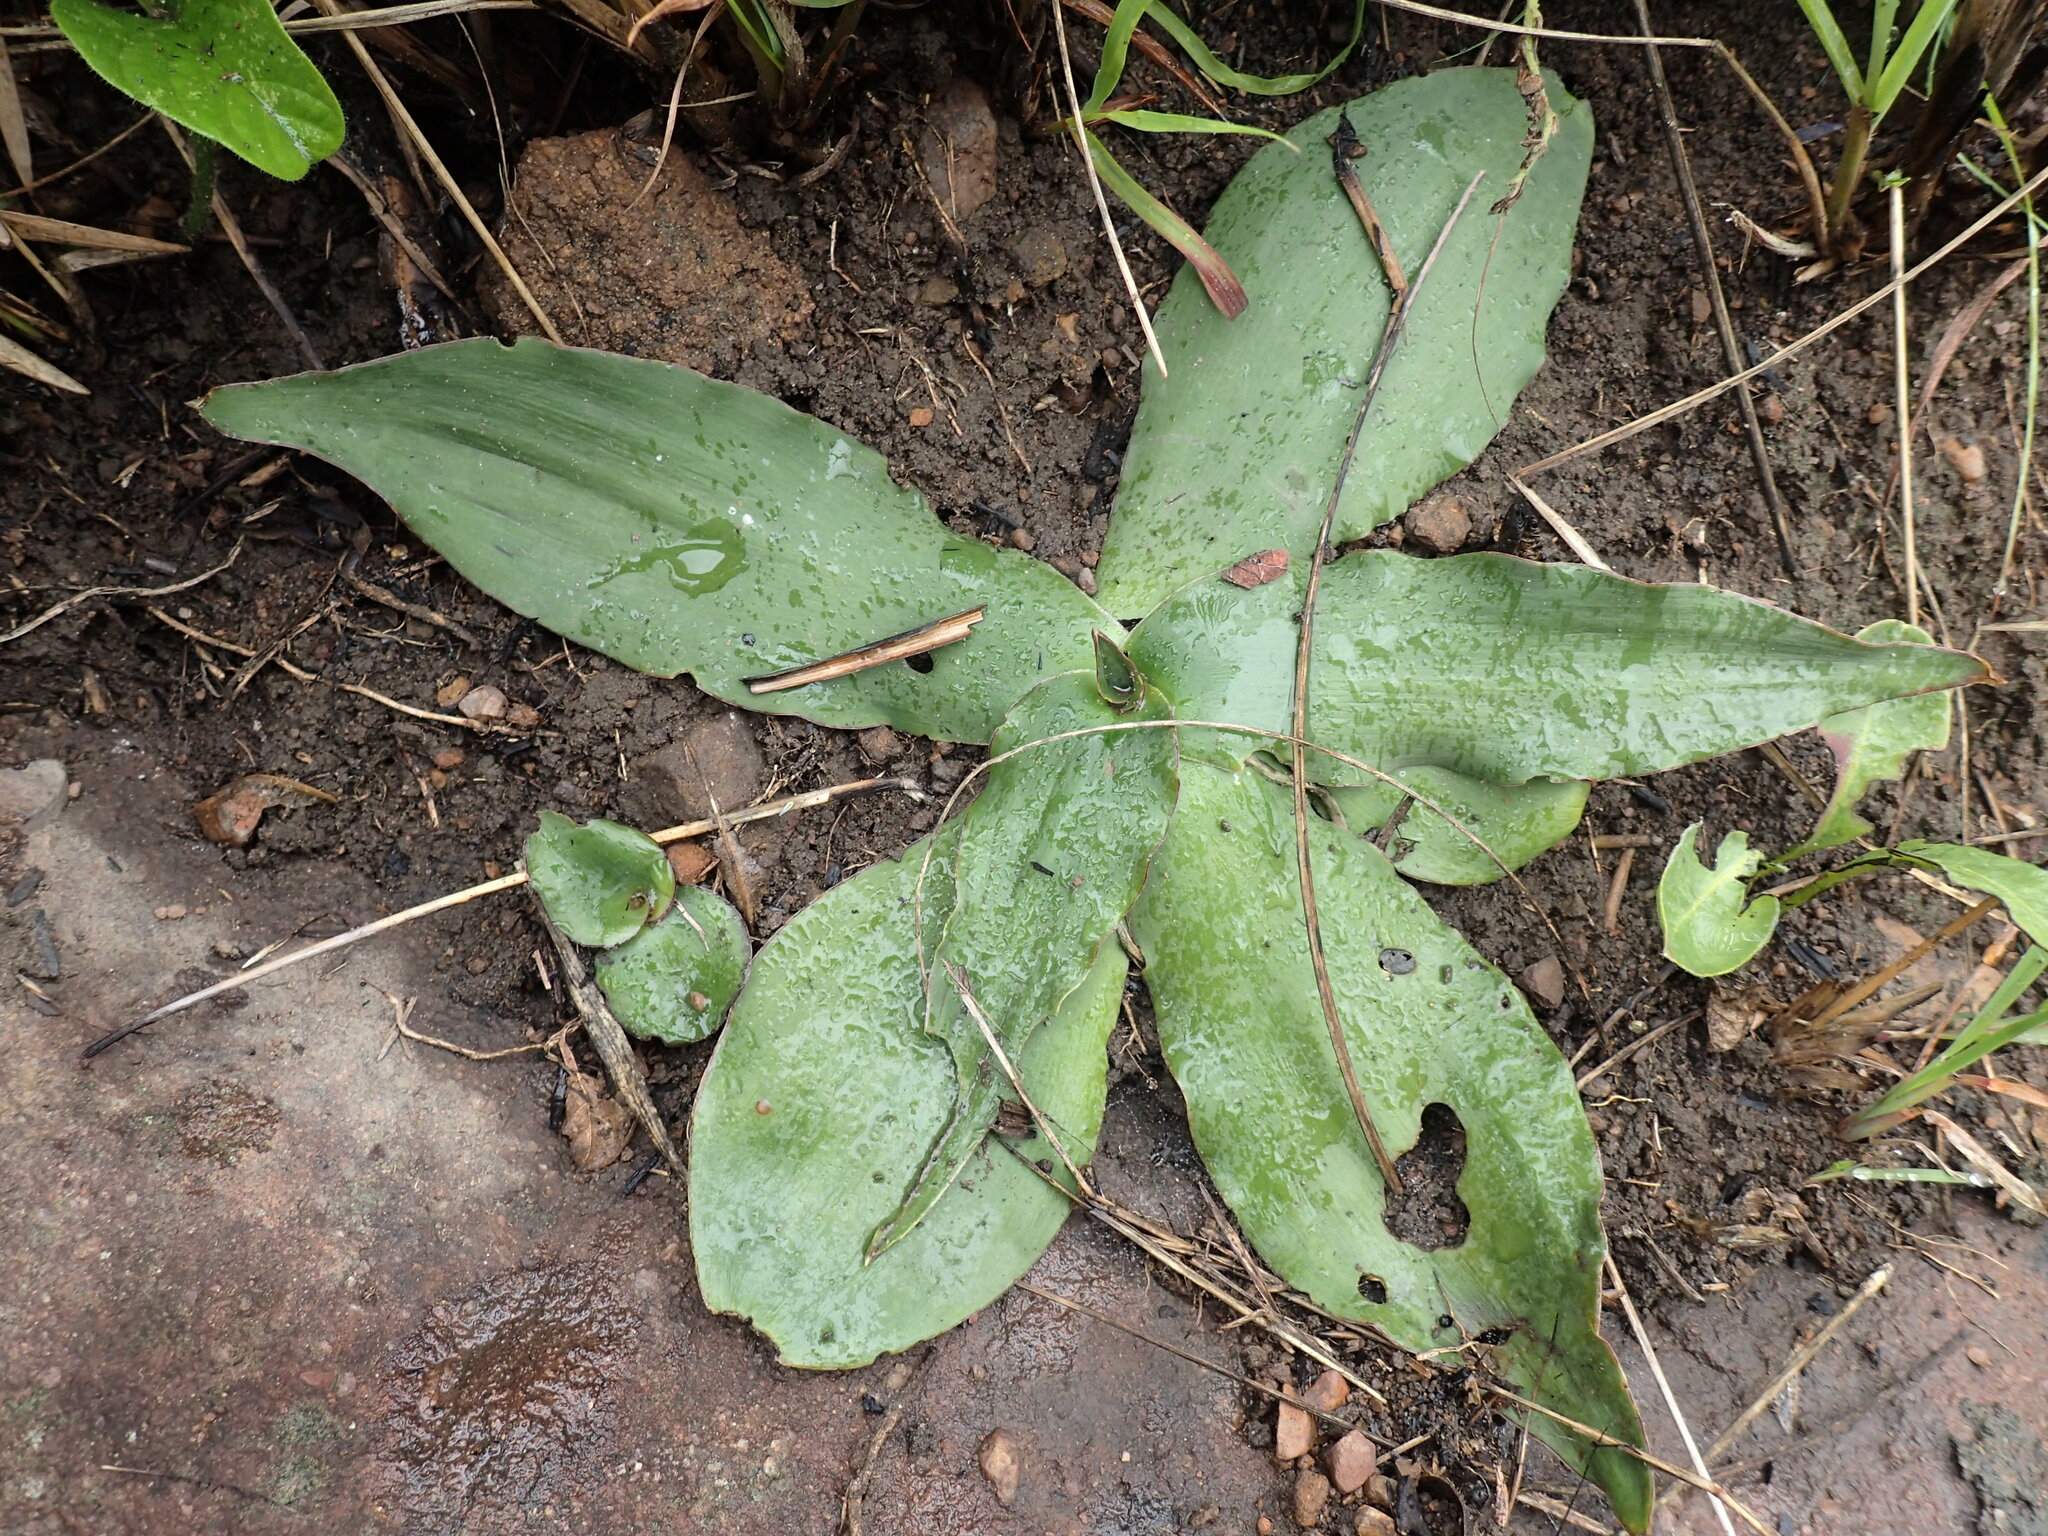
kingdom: Plantae
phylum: Tracheophyta
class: Liliopsida
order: Asparagales
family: Asparagaceae
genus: Ledebouria
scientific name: Ledebouria ovatifolia
